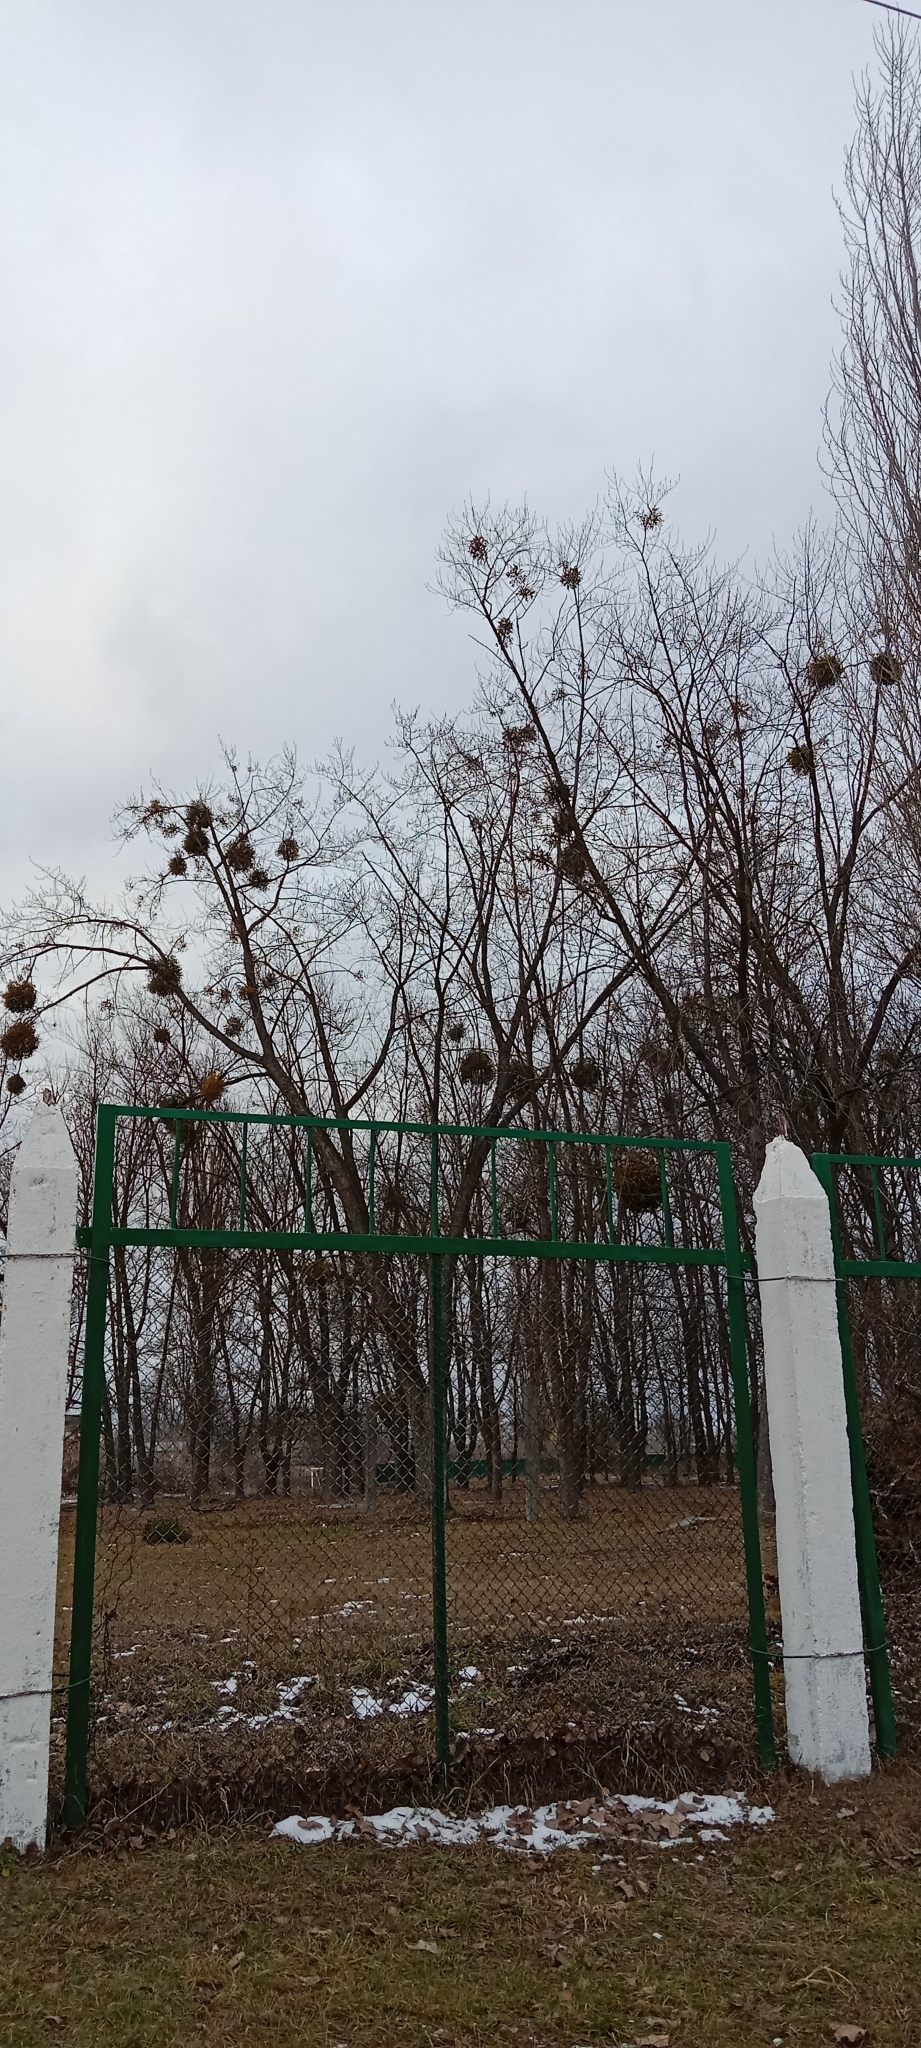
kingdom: Plantae
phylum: Tracheophyta
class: Magnoliopsida
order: Santalales
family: Viscaceae
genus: Viscum
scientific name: Viscum album
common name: Mistletoe
